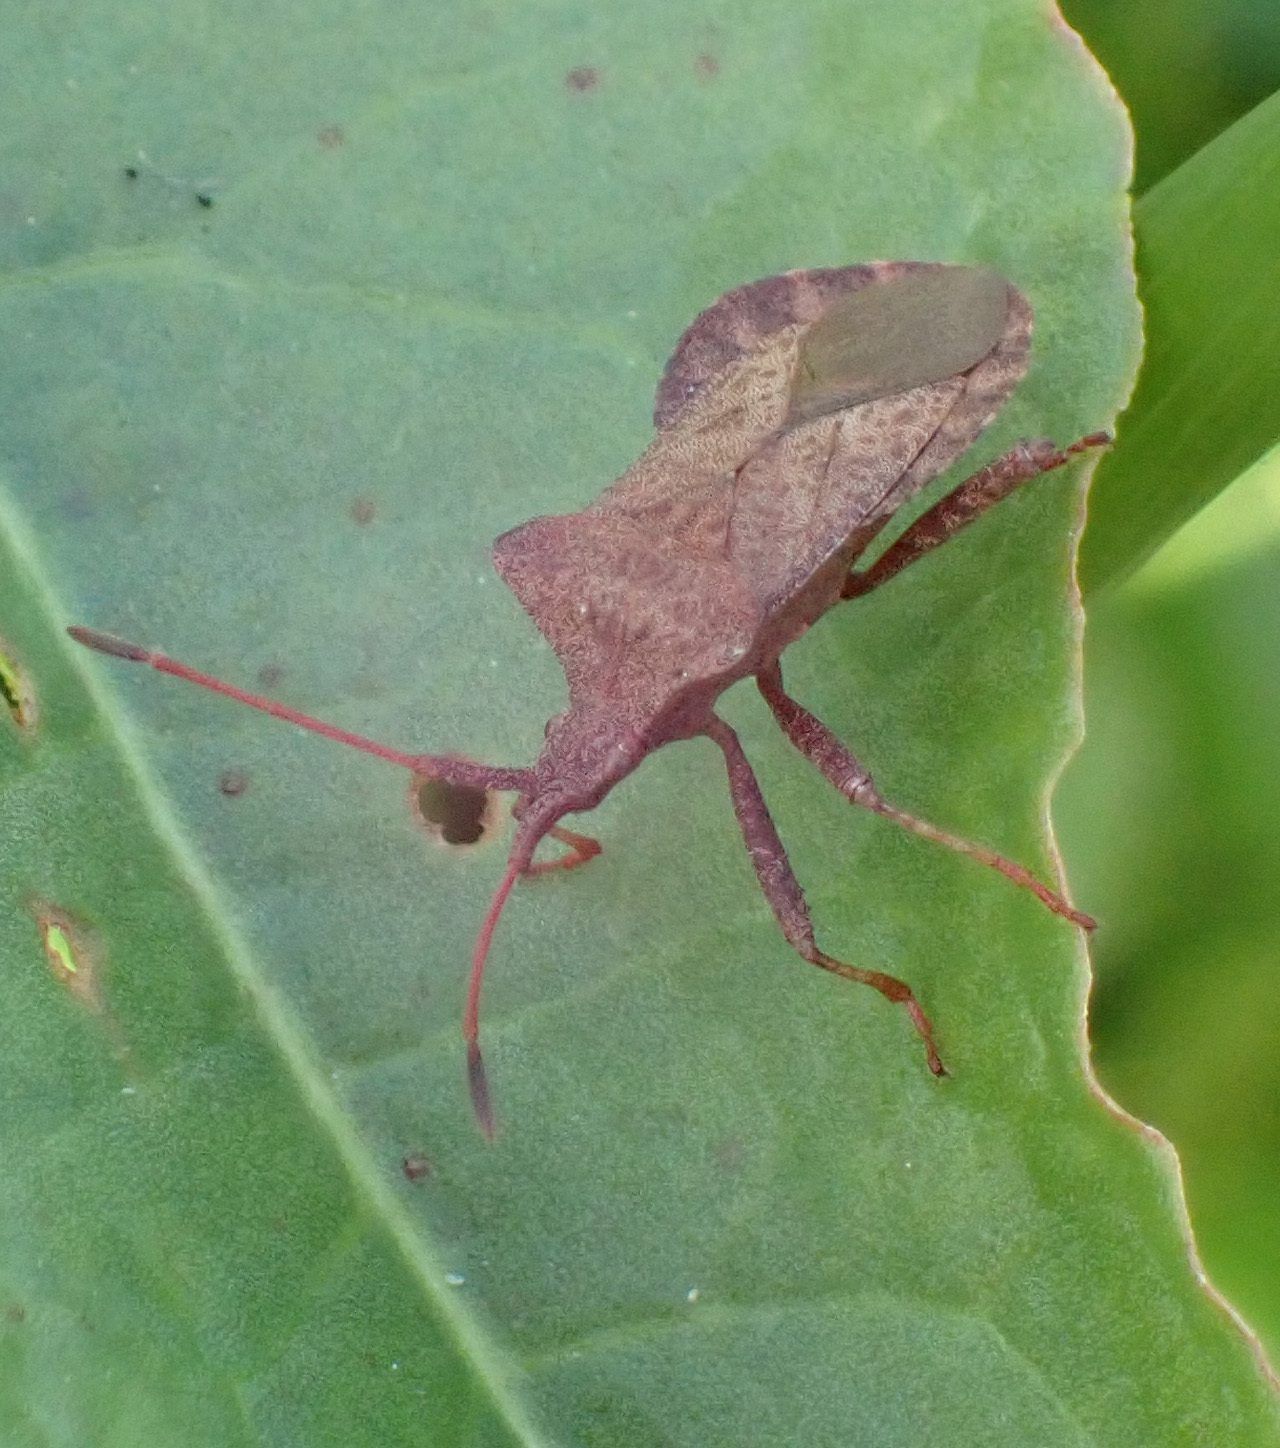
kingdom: Animalia
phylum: Arthropoda
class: Insecta
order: Hemiptera
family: Coreidae
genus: Coreus
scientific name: Coreus marginatus
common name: Dock bug
